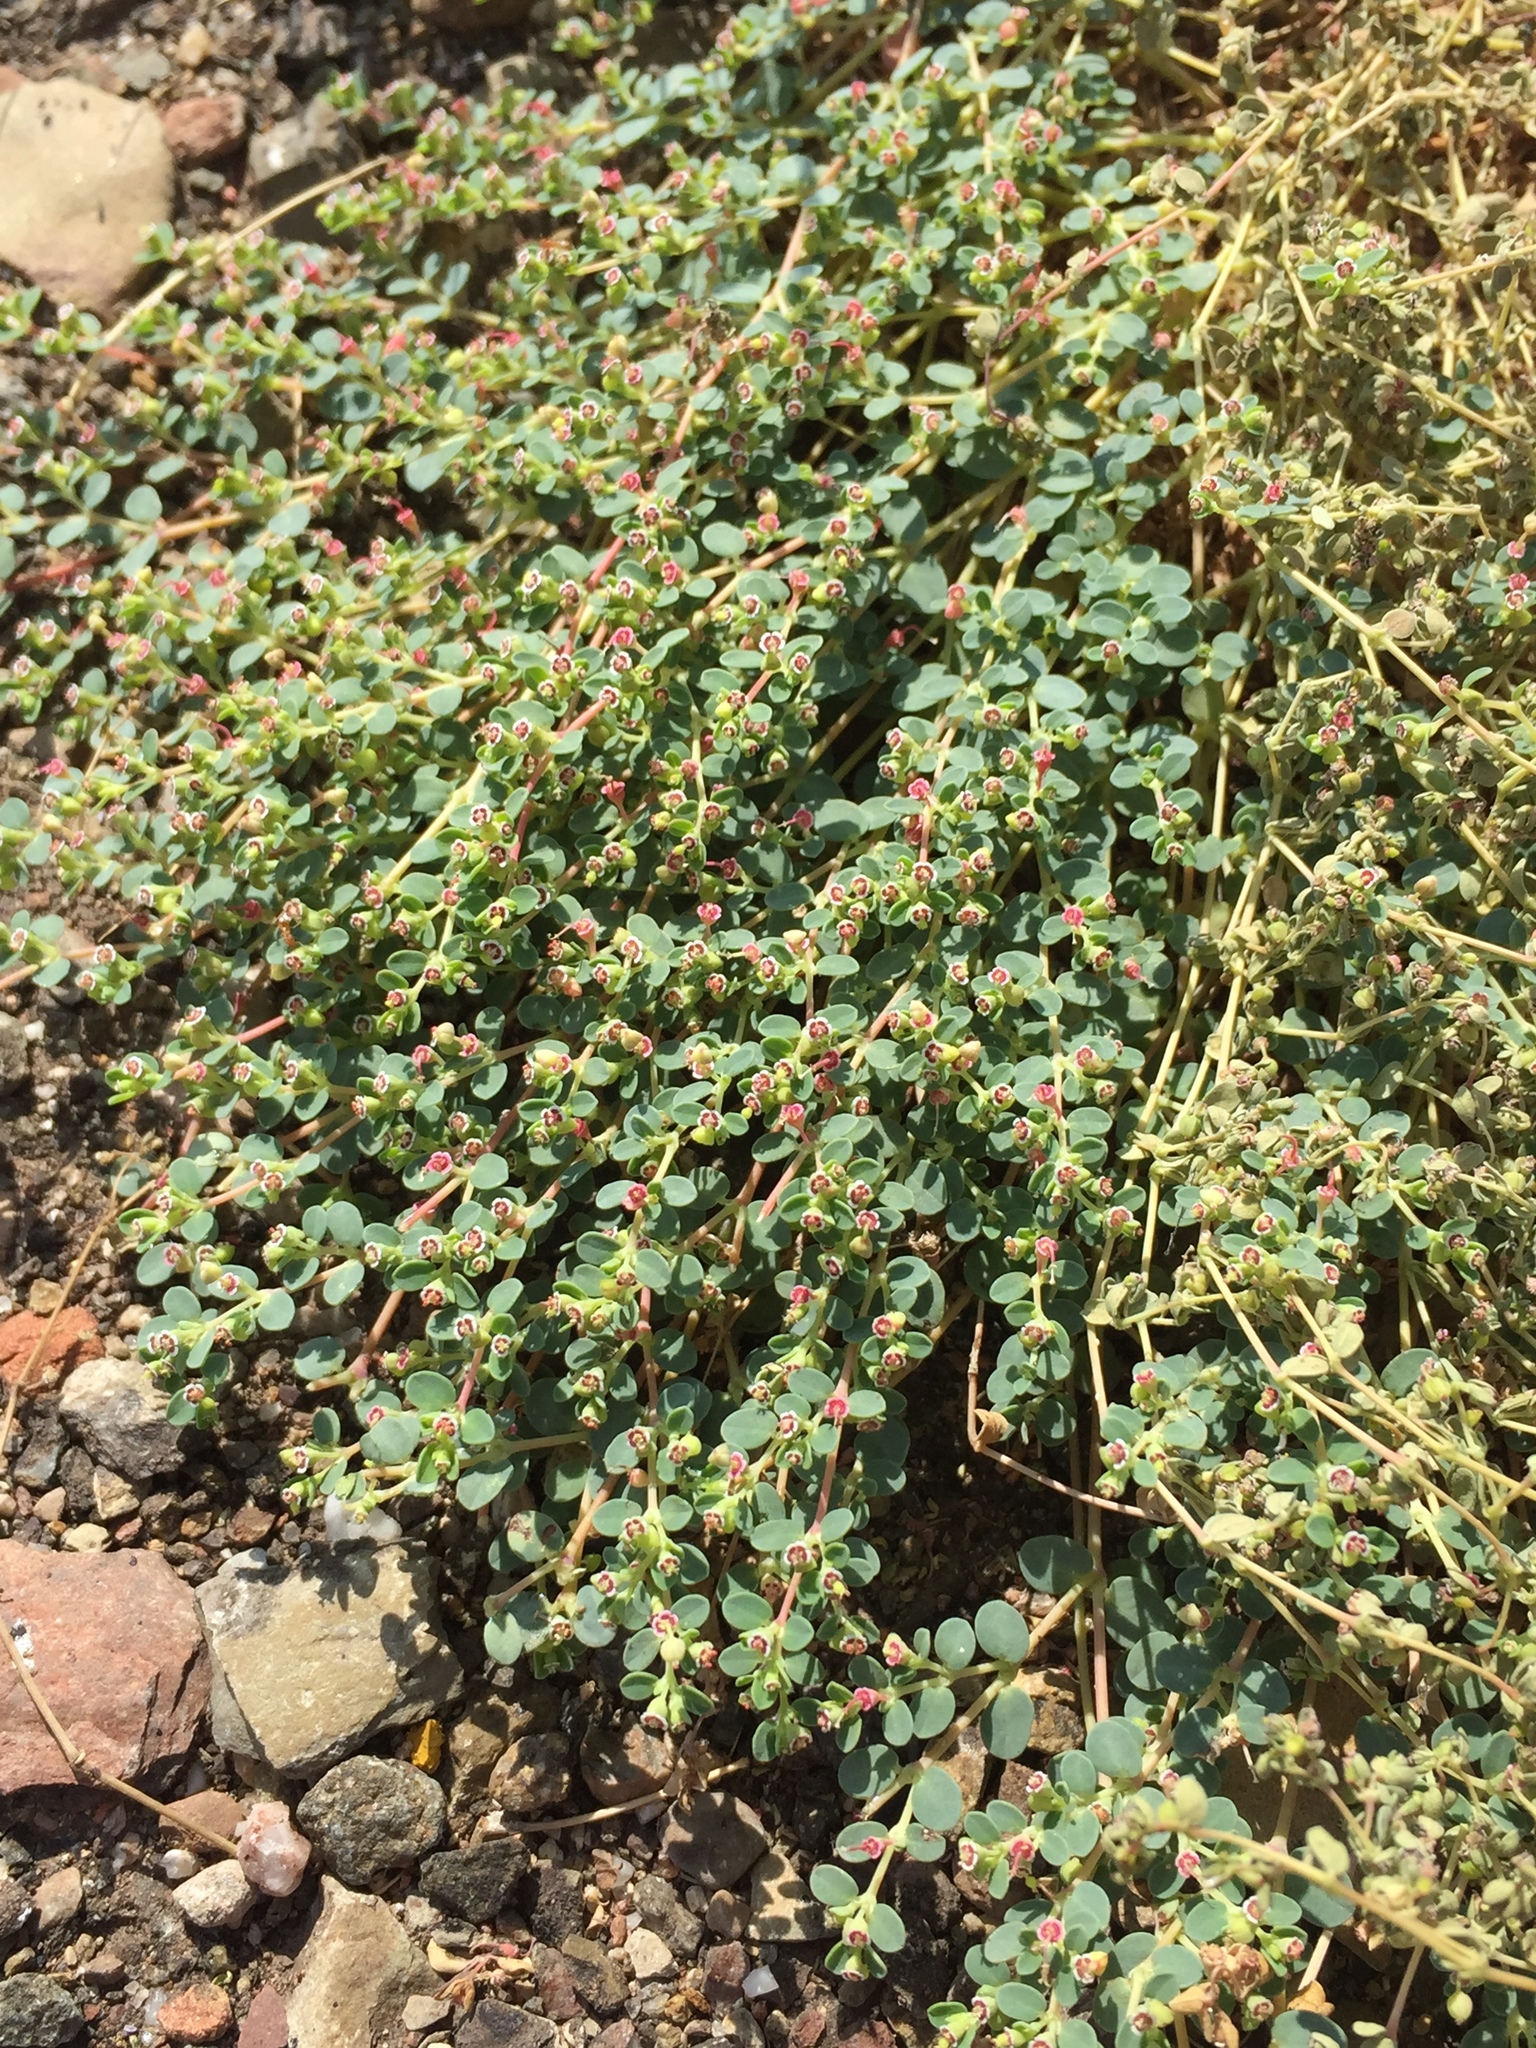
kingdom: Plantae
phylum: Tracheophyta
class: Magnoliopsida
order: Malpighiales
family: Euphorbiaceae
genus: Euphorbia
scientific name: Euphorbia polycarpa
